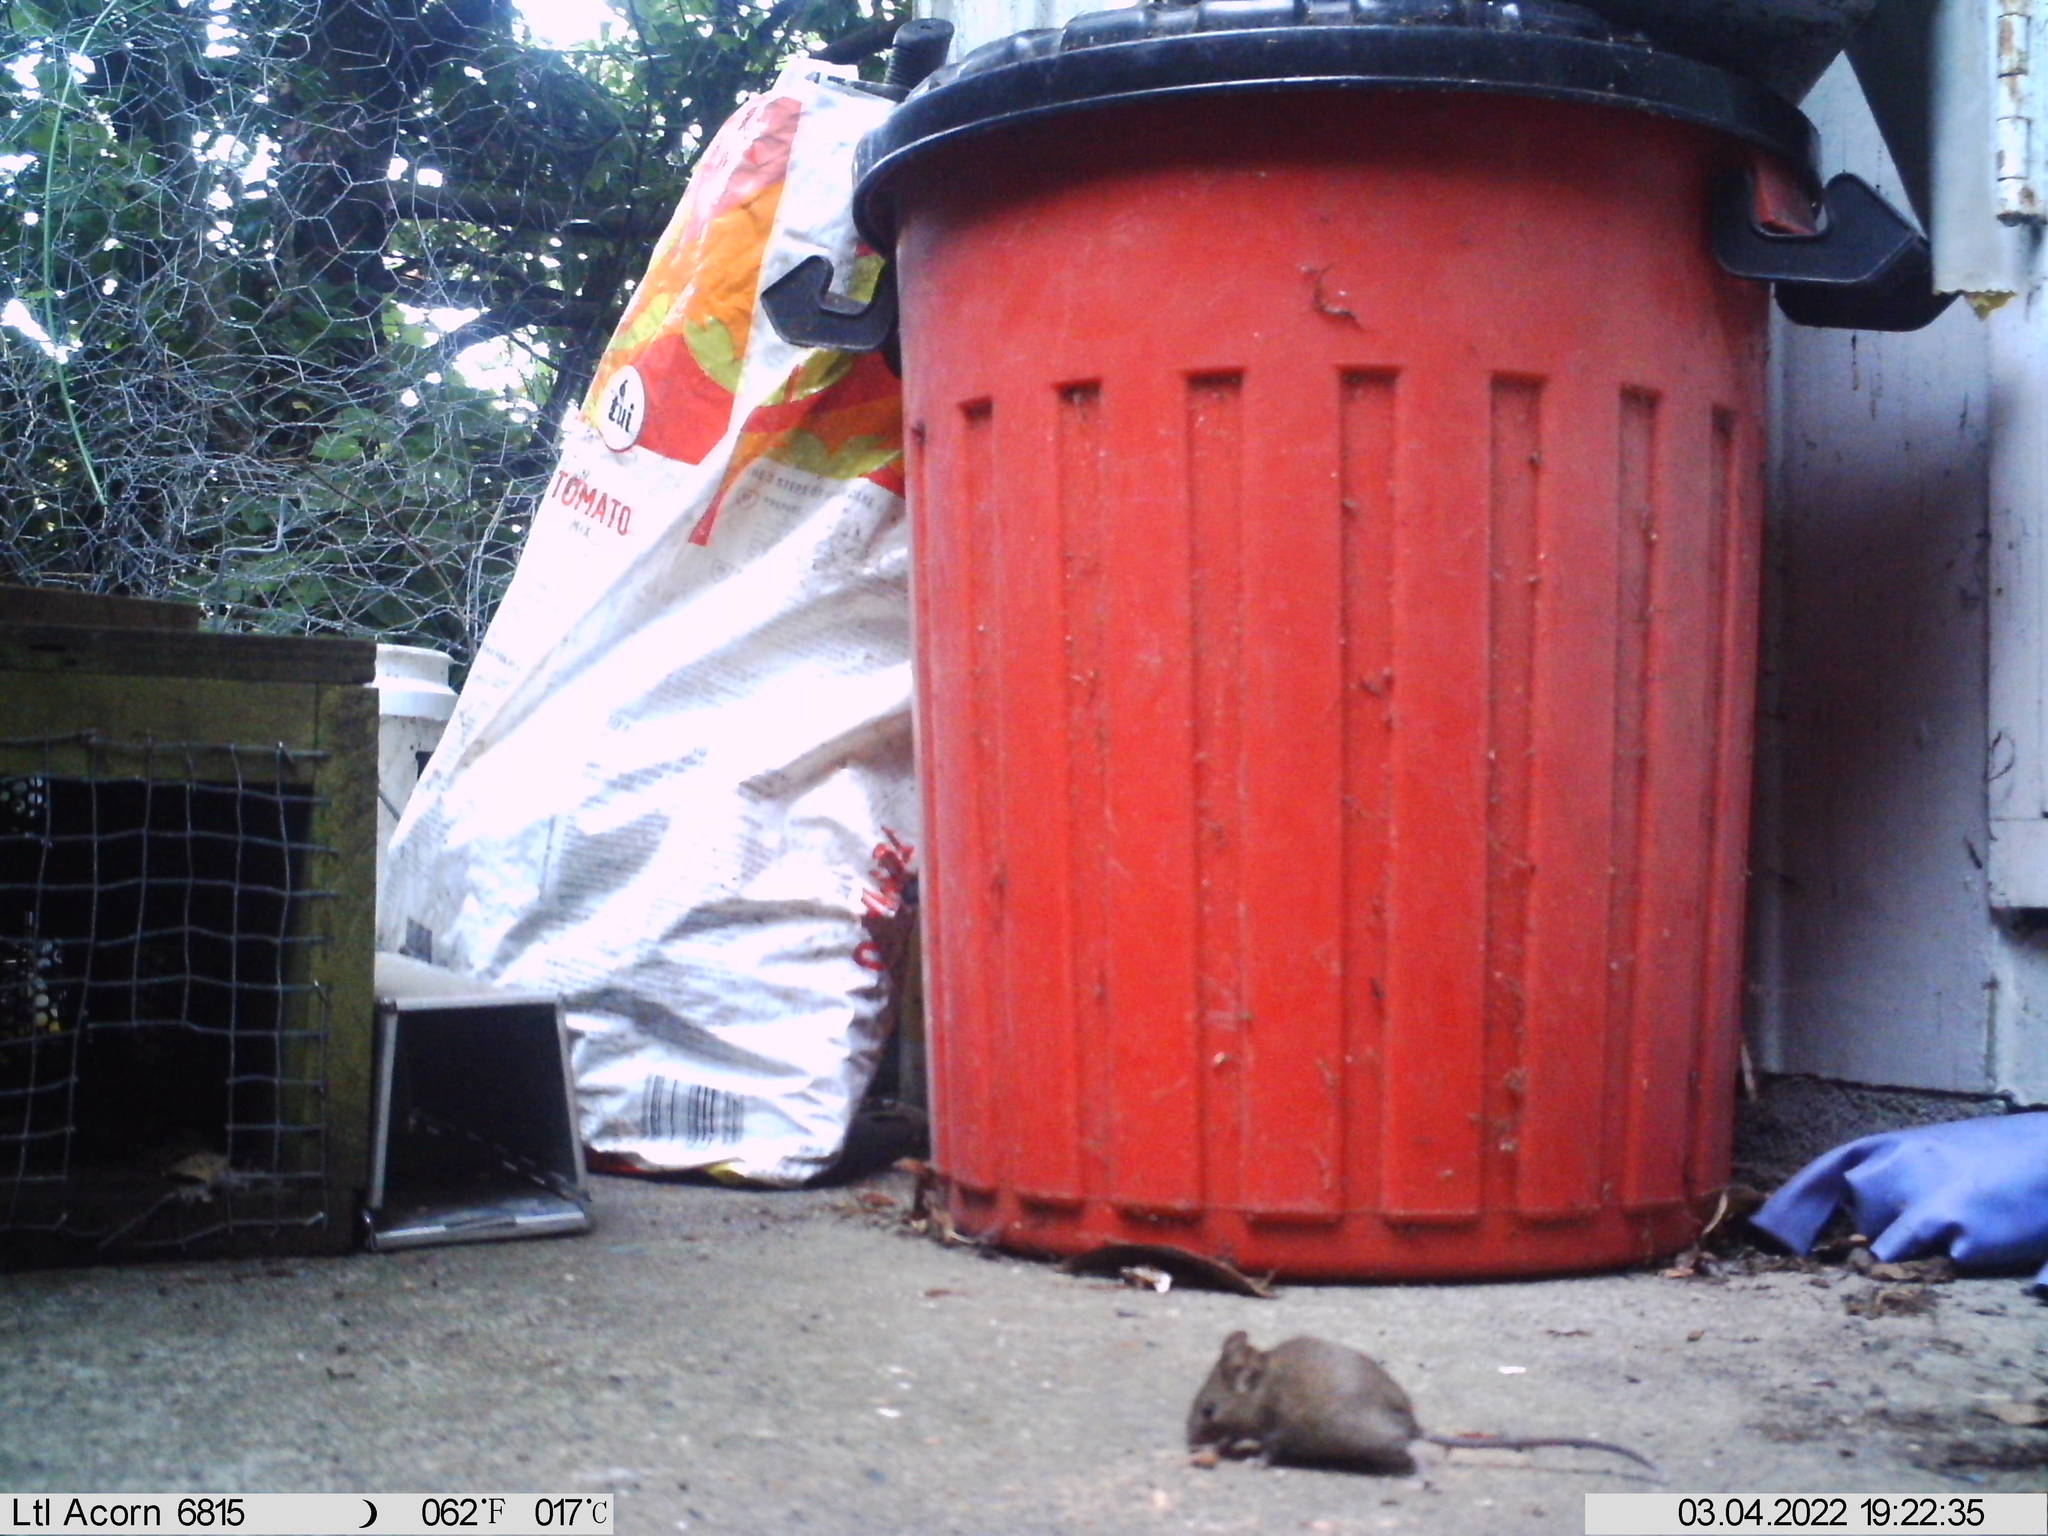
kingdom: Animalia
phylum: Chordata
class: Mammalia
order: Rodentia
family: Muridae
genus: Mus
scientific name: Mus musculus
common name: House mouse
